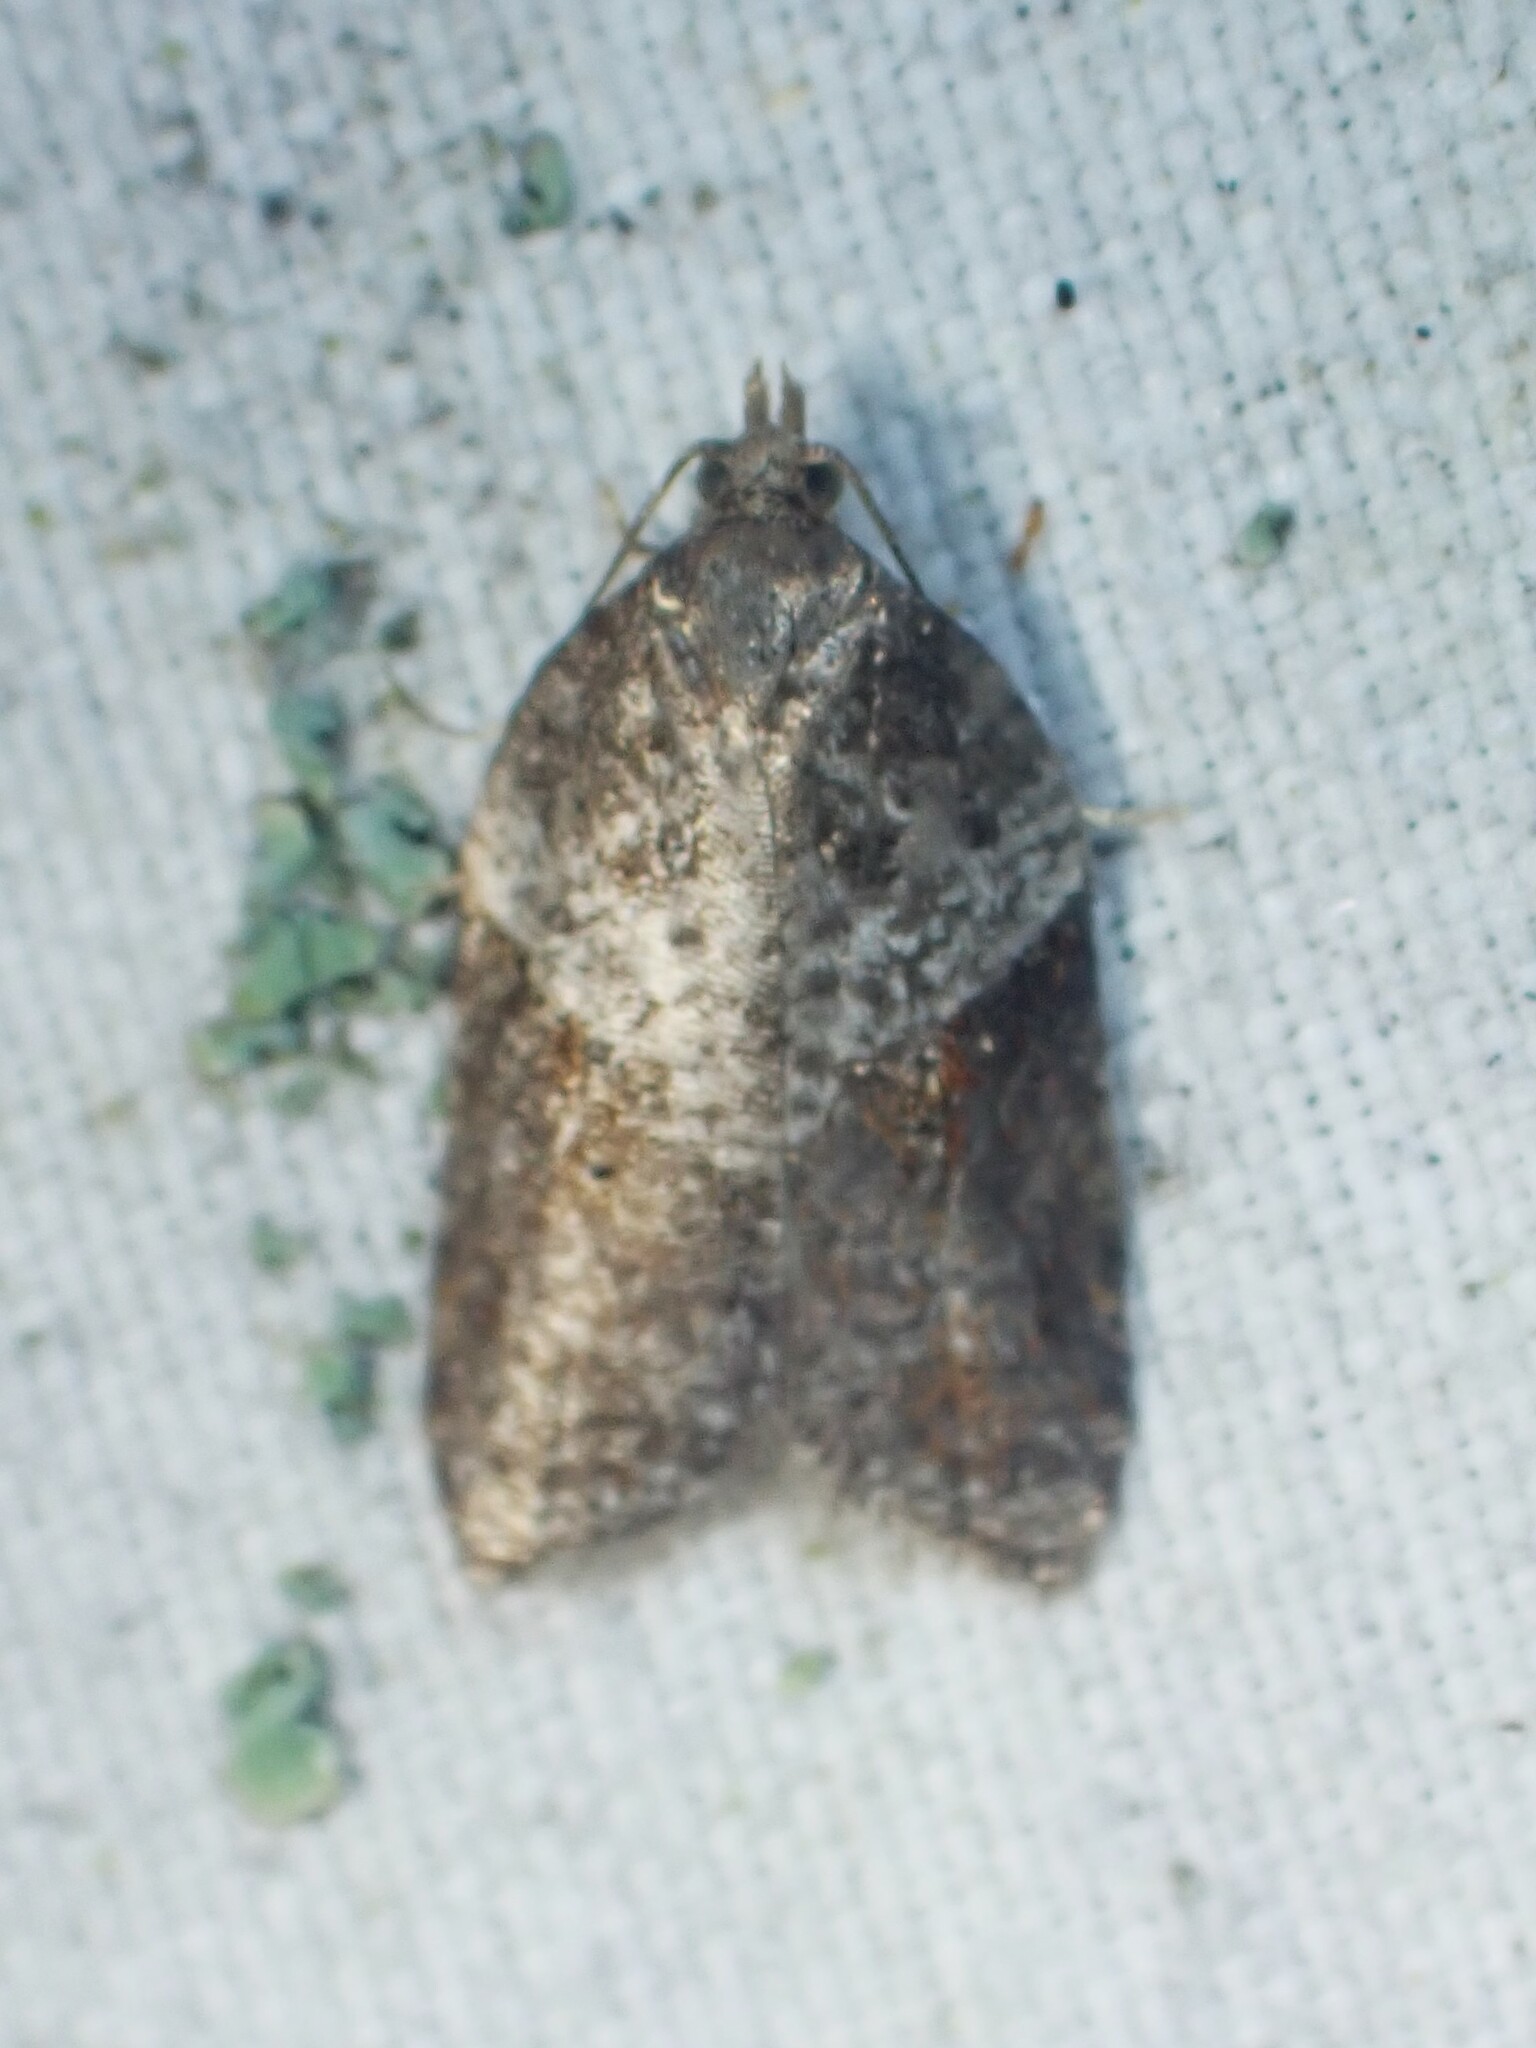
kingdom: Animalia
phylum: Arthropoda
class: Insecta
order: Lepidoptera
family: Tortricidae
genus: Acleris
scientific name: Acleris macdunnoughi
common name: Macdunnough's acleris
